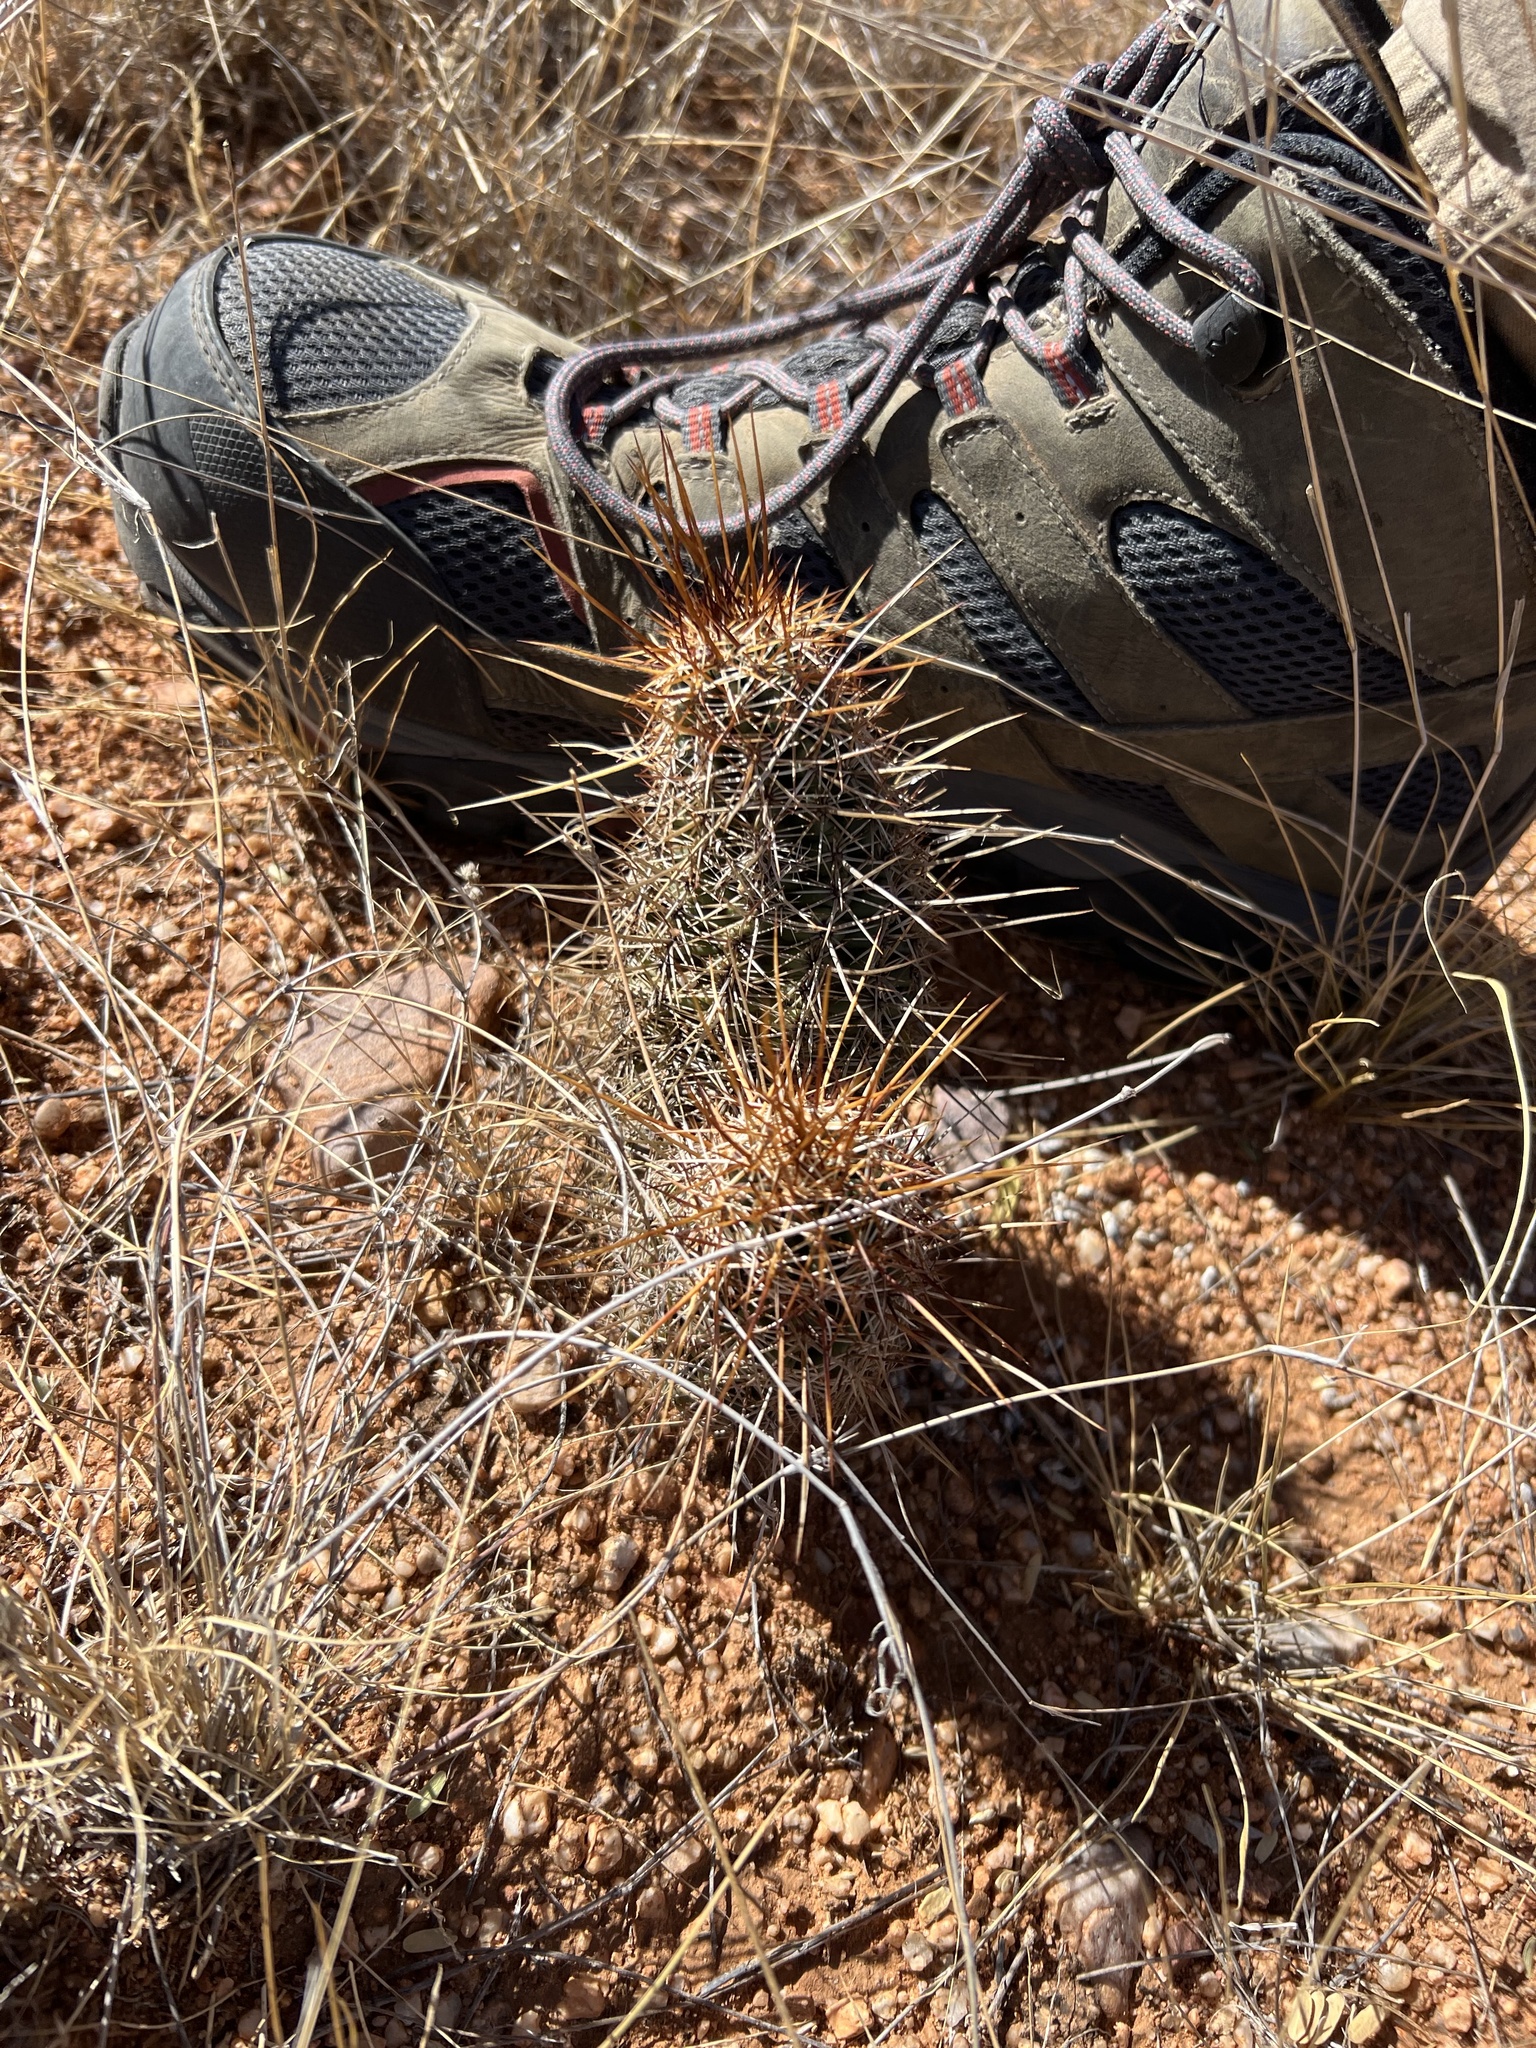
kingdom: Plantae
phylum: Tracheophyta
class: Magnoliopsida
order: Caryophyllales
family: Cactaceae
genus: Echinocereus
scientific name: Echinocereus fasciculatus
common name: Bundle hedgehog
